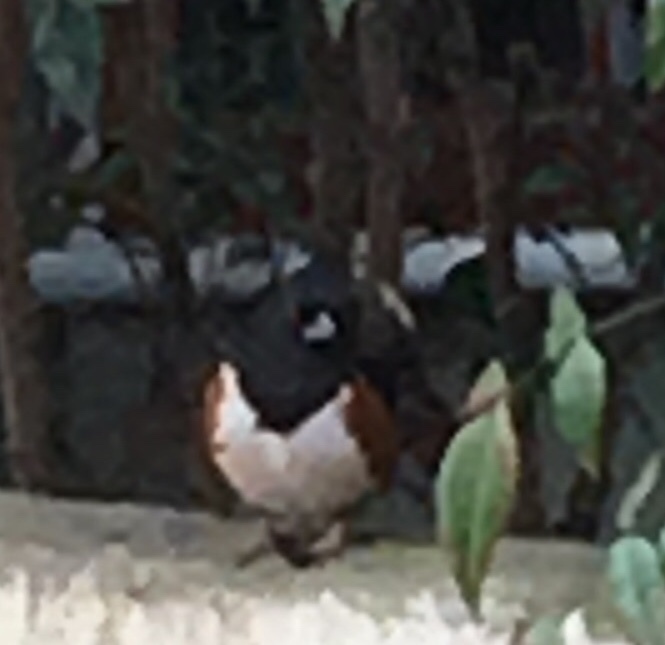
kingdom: Animalia
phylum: Chordata
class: Aves
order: Passeriformes
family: Passerellidae
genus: Pipilo
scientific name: Pipilo erythrophthalmus
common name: Eastern towhee
